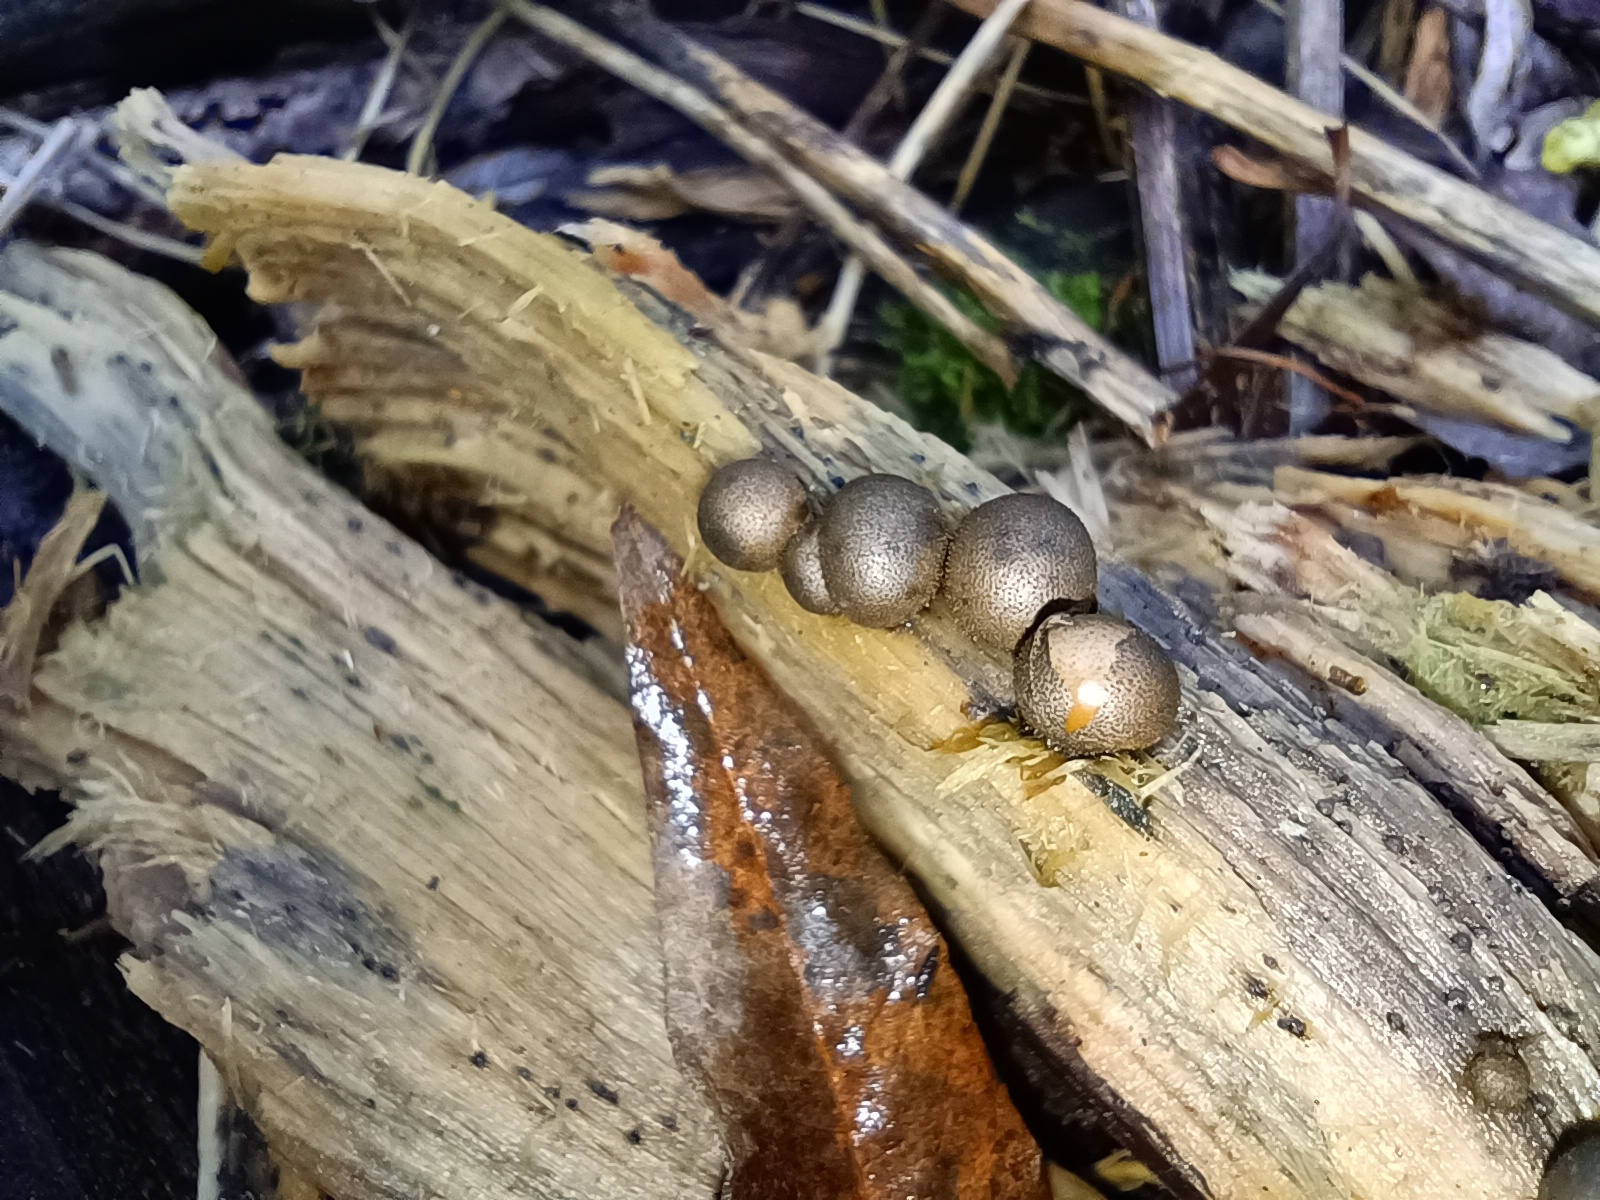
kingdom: Protozoa
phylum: Mycetozoa
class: Myxomycetes
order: Cribrariales
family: Tubiferaceae
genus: Lycogala
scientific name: Lycogala epidendrum
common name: Wolf's milk
